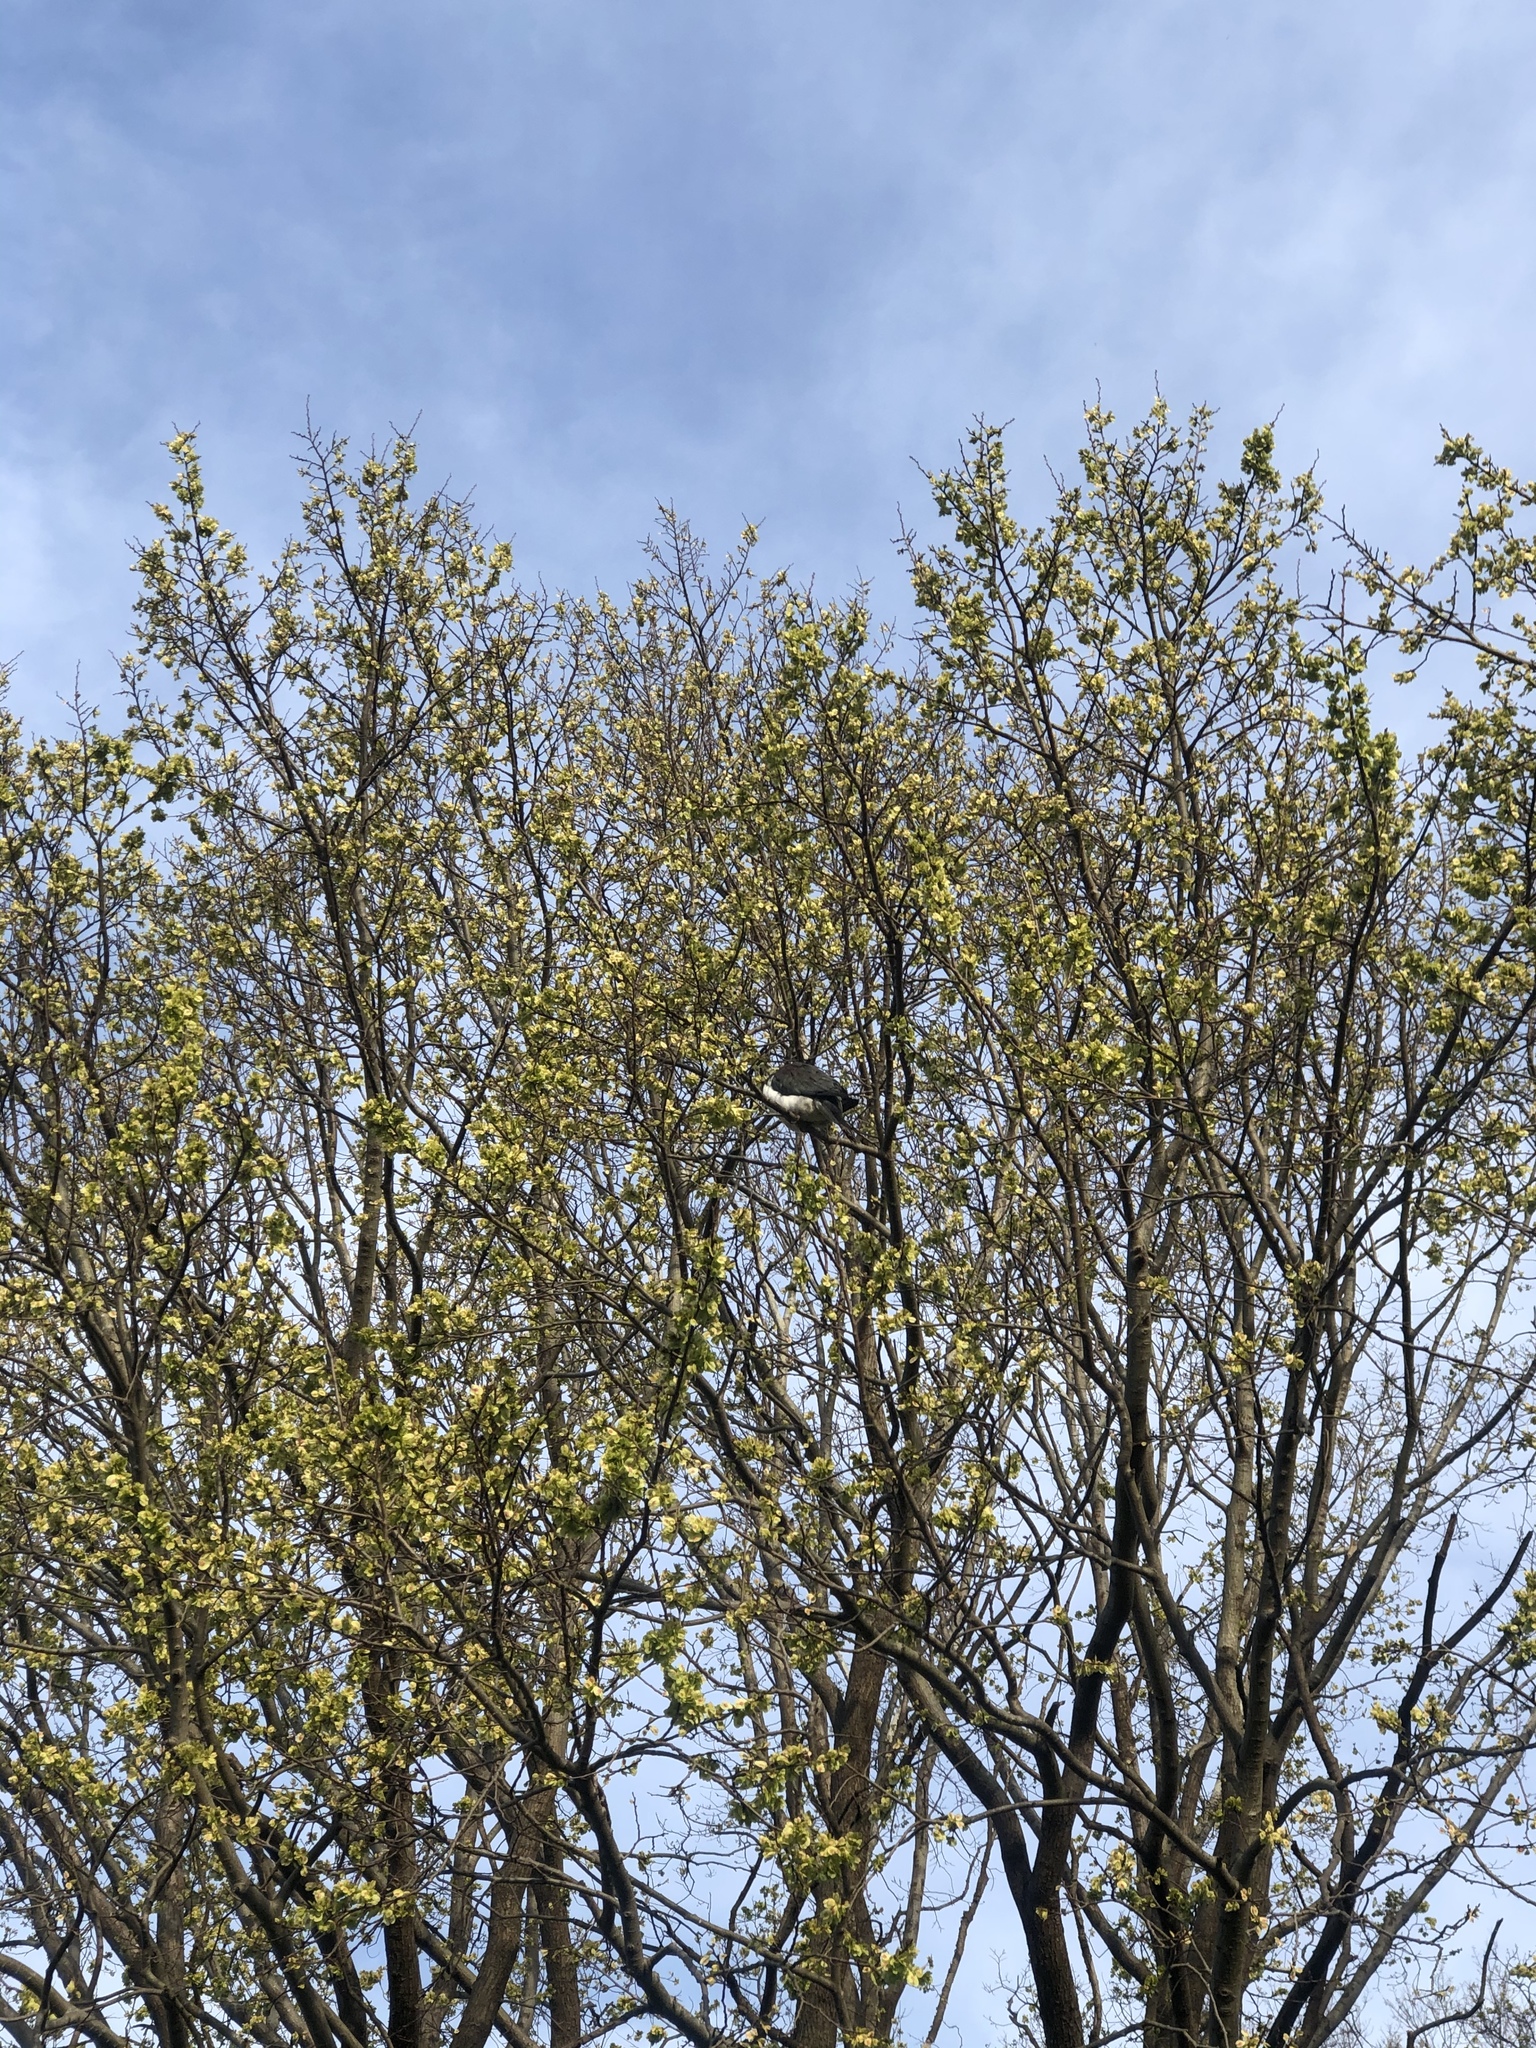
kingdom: Animalia
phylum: Chordata
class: Aves
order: Columbiformes
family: Columbidae
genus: Hemiphaga
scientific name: Hemiphaga novaeseelandiae
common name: New zealand pigeon
